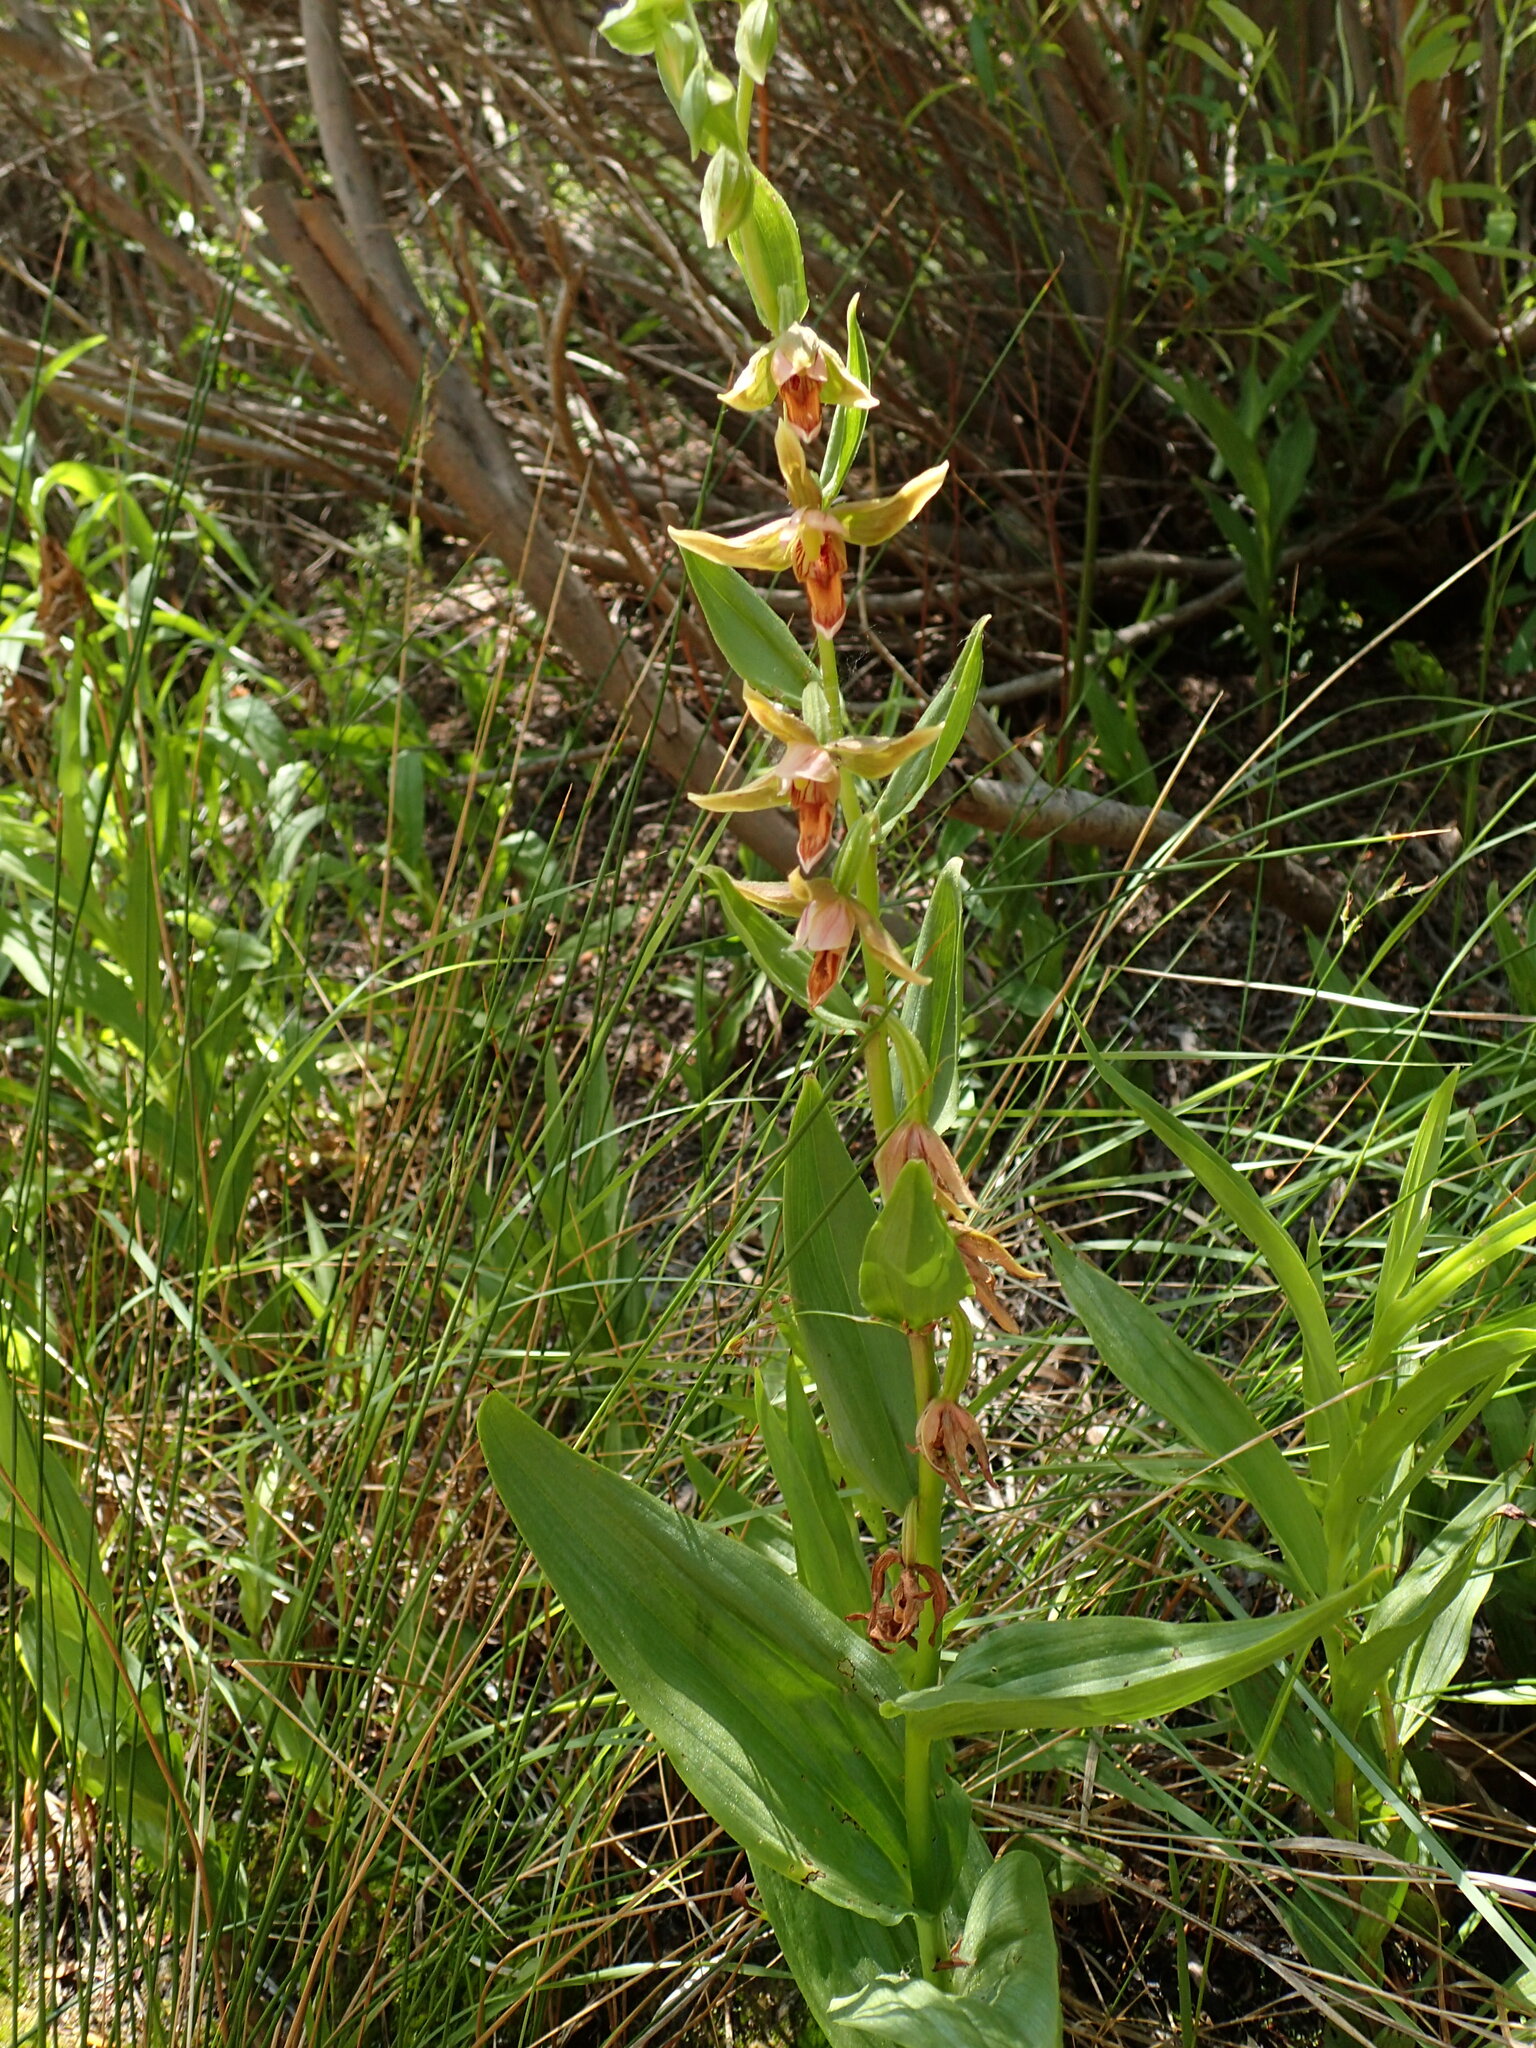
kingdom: Plantae
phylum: Tracheophyta
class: Liliopsida
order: Asparagales
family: Orchidaceae
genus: Epipactis
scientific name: Epipactis gigantea
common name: Chatterbox
